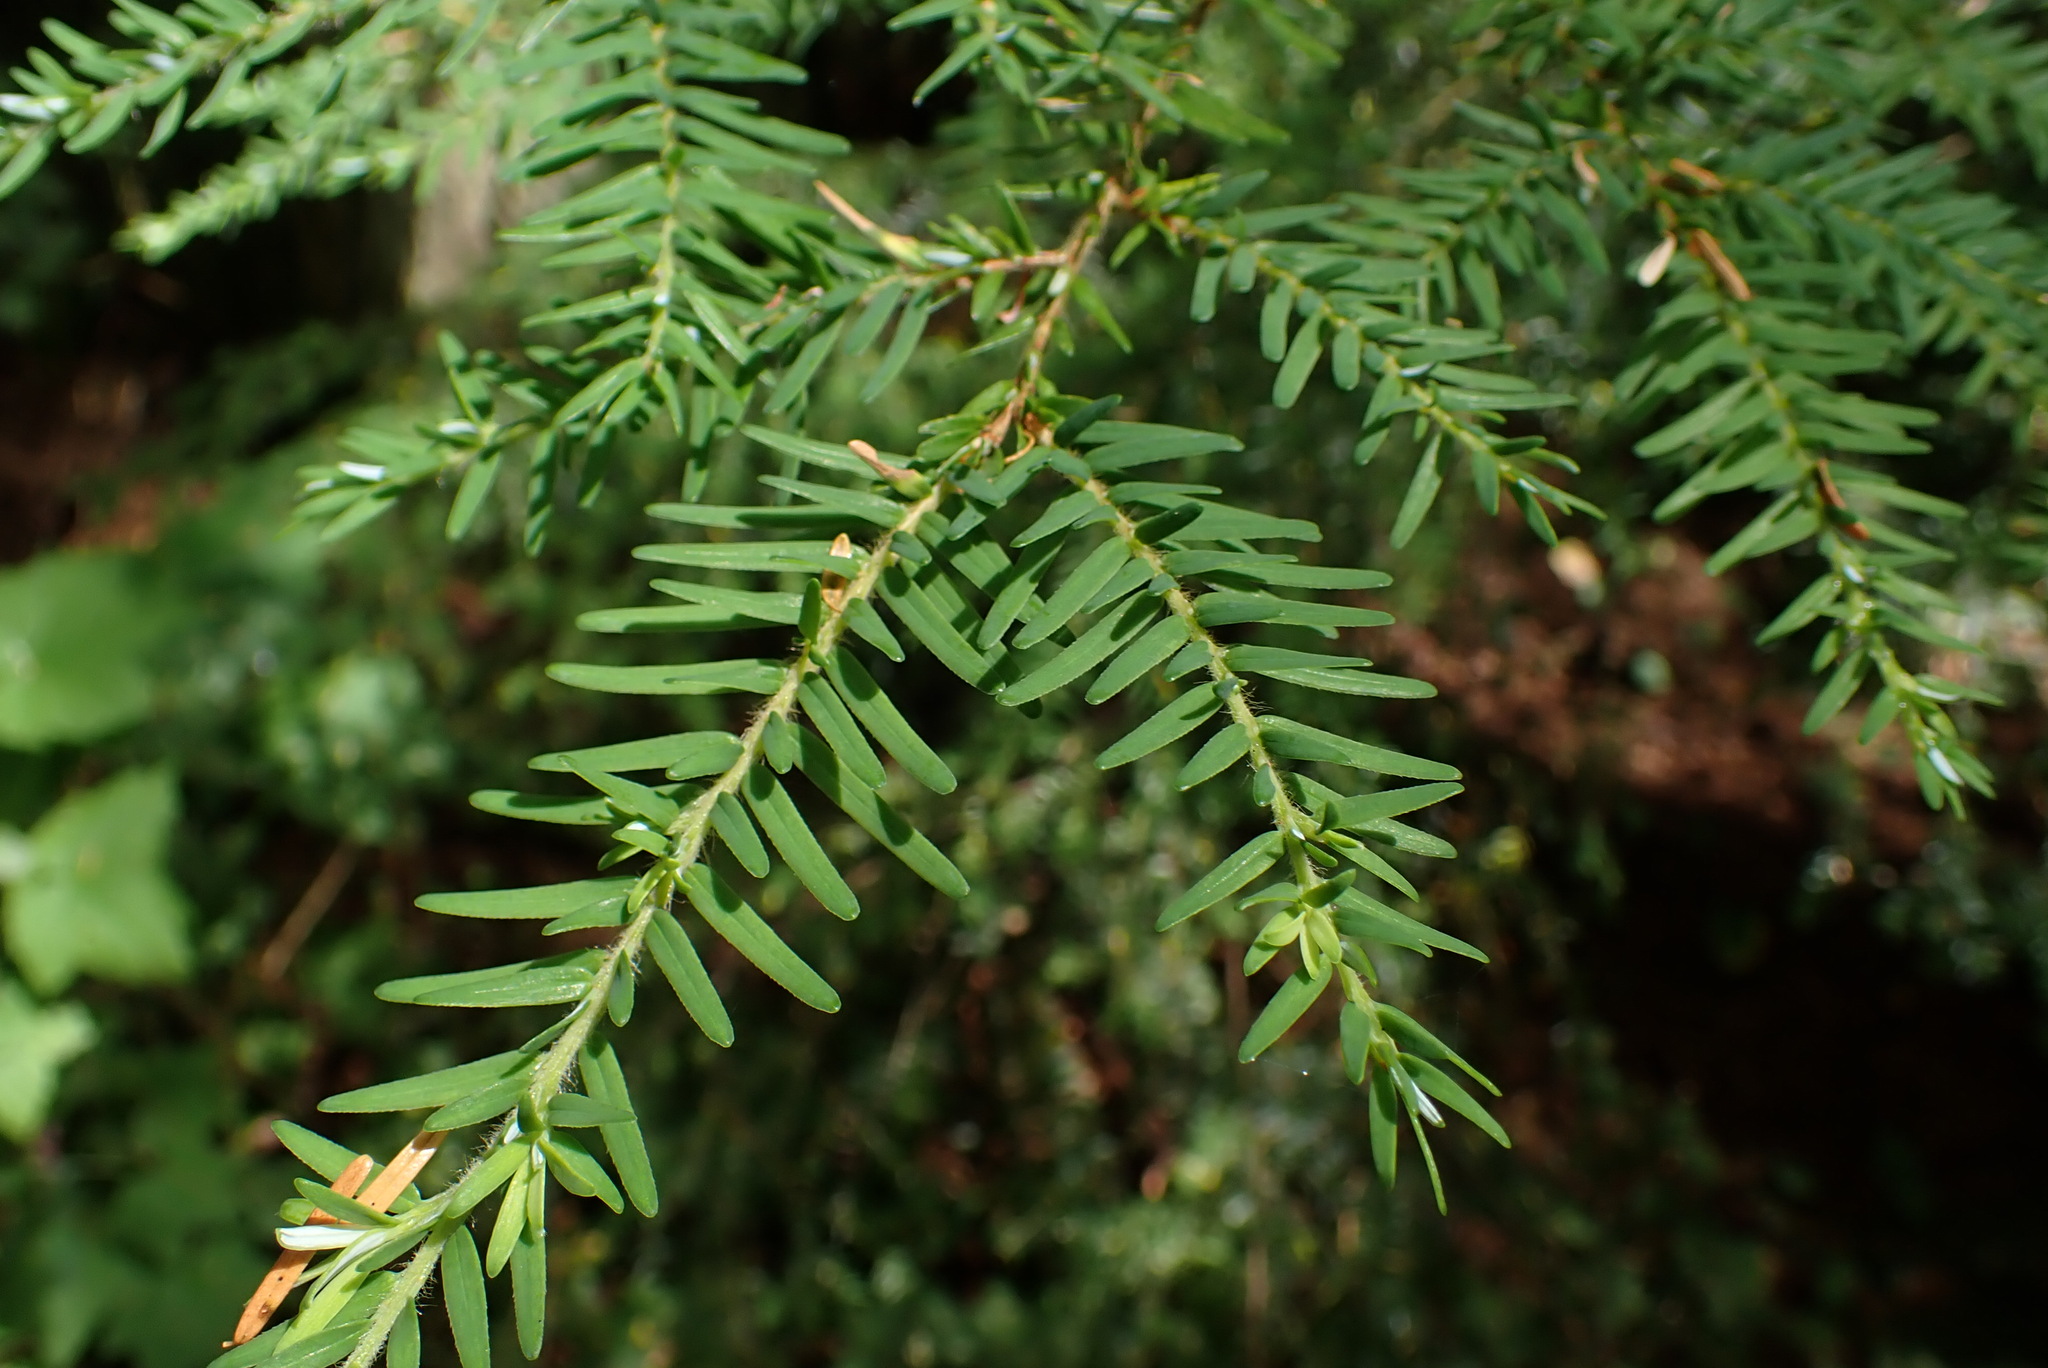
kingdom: Plantae
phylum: Tracheophyta
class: Pinopsida
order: Pinales
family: Pinaceae
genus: Tsuga
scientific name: Tsuga heterophylla
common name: Western hemlock
